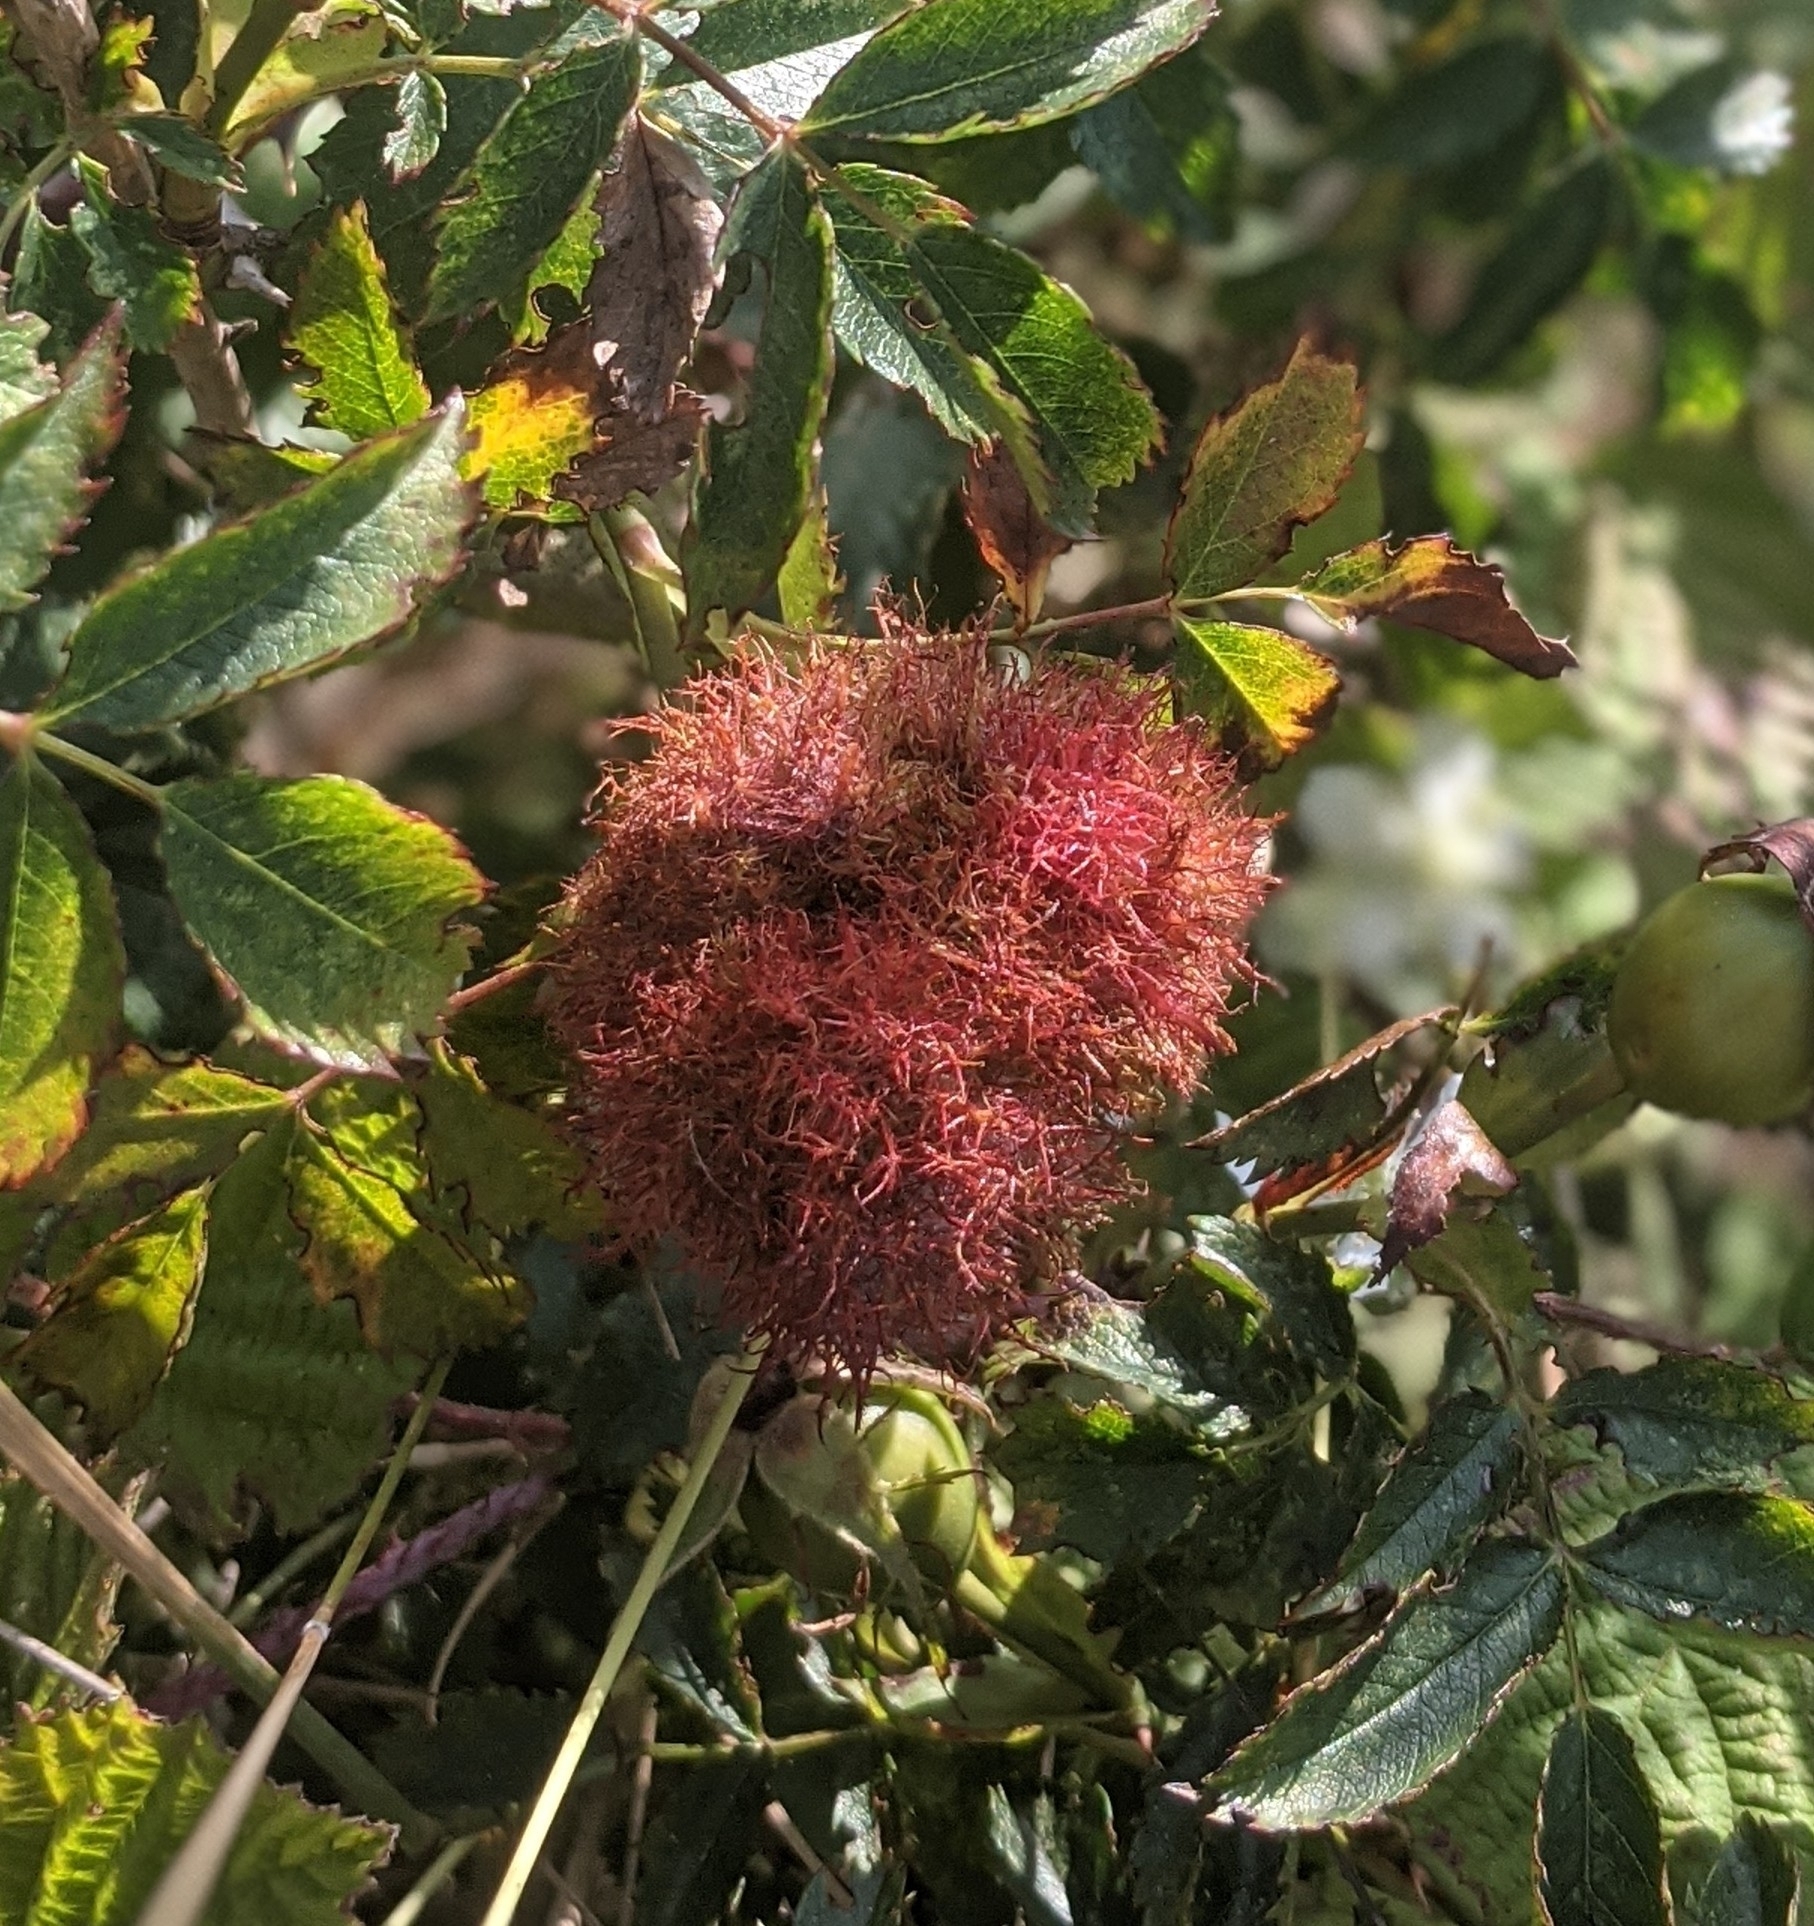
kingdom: Animalia
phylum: Arthropoda
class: Insecta
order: Hymenoptera
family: Cynipidae
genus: Diplolepis
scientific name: Diplolepis rosae
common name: Bedeguar gall
